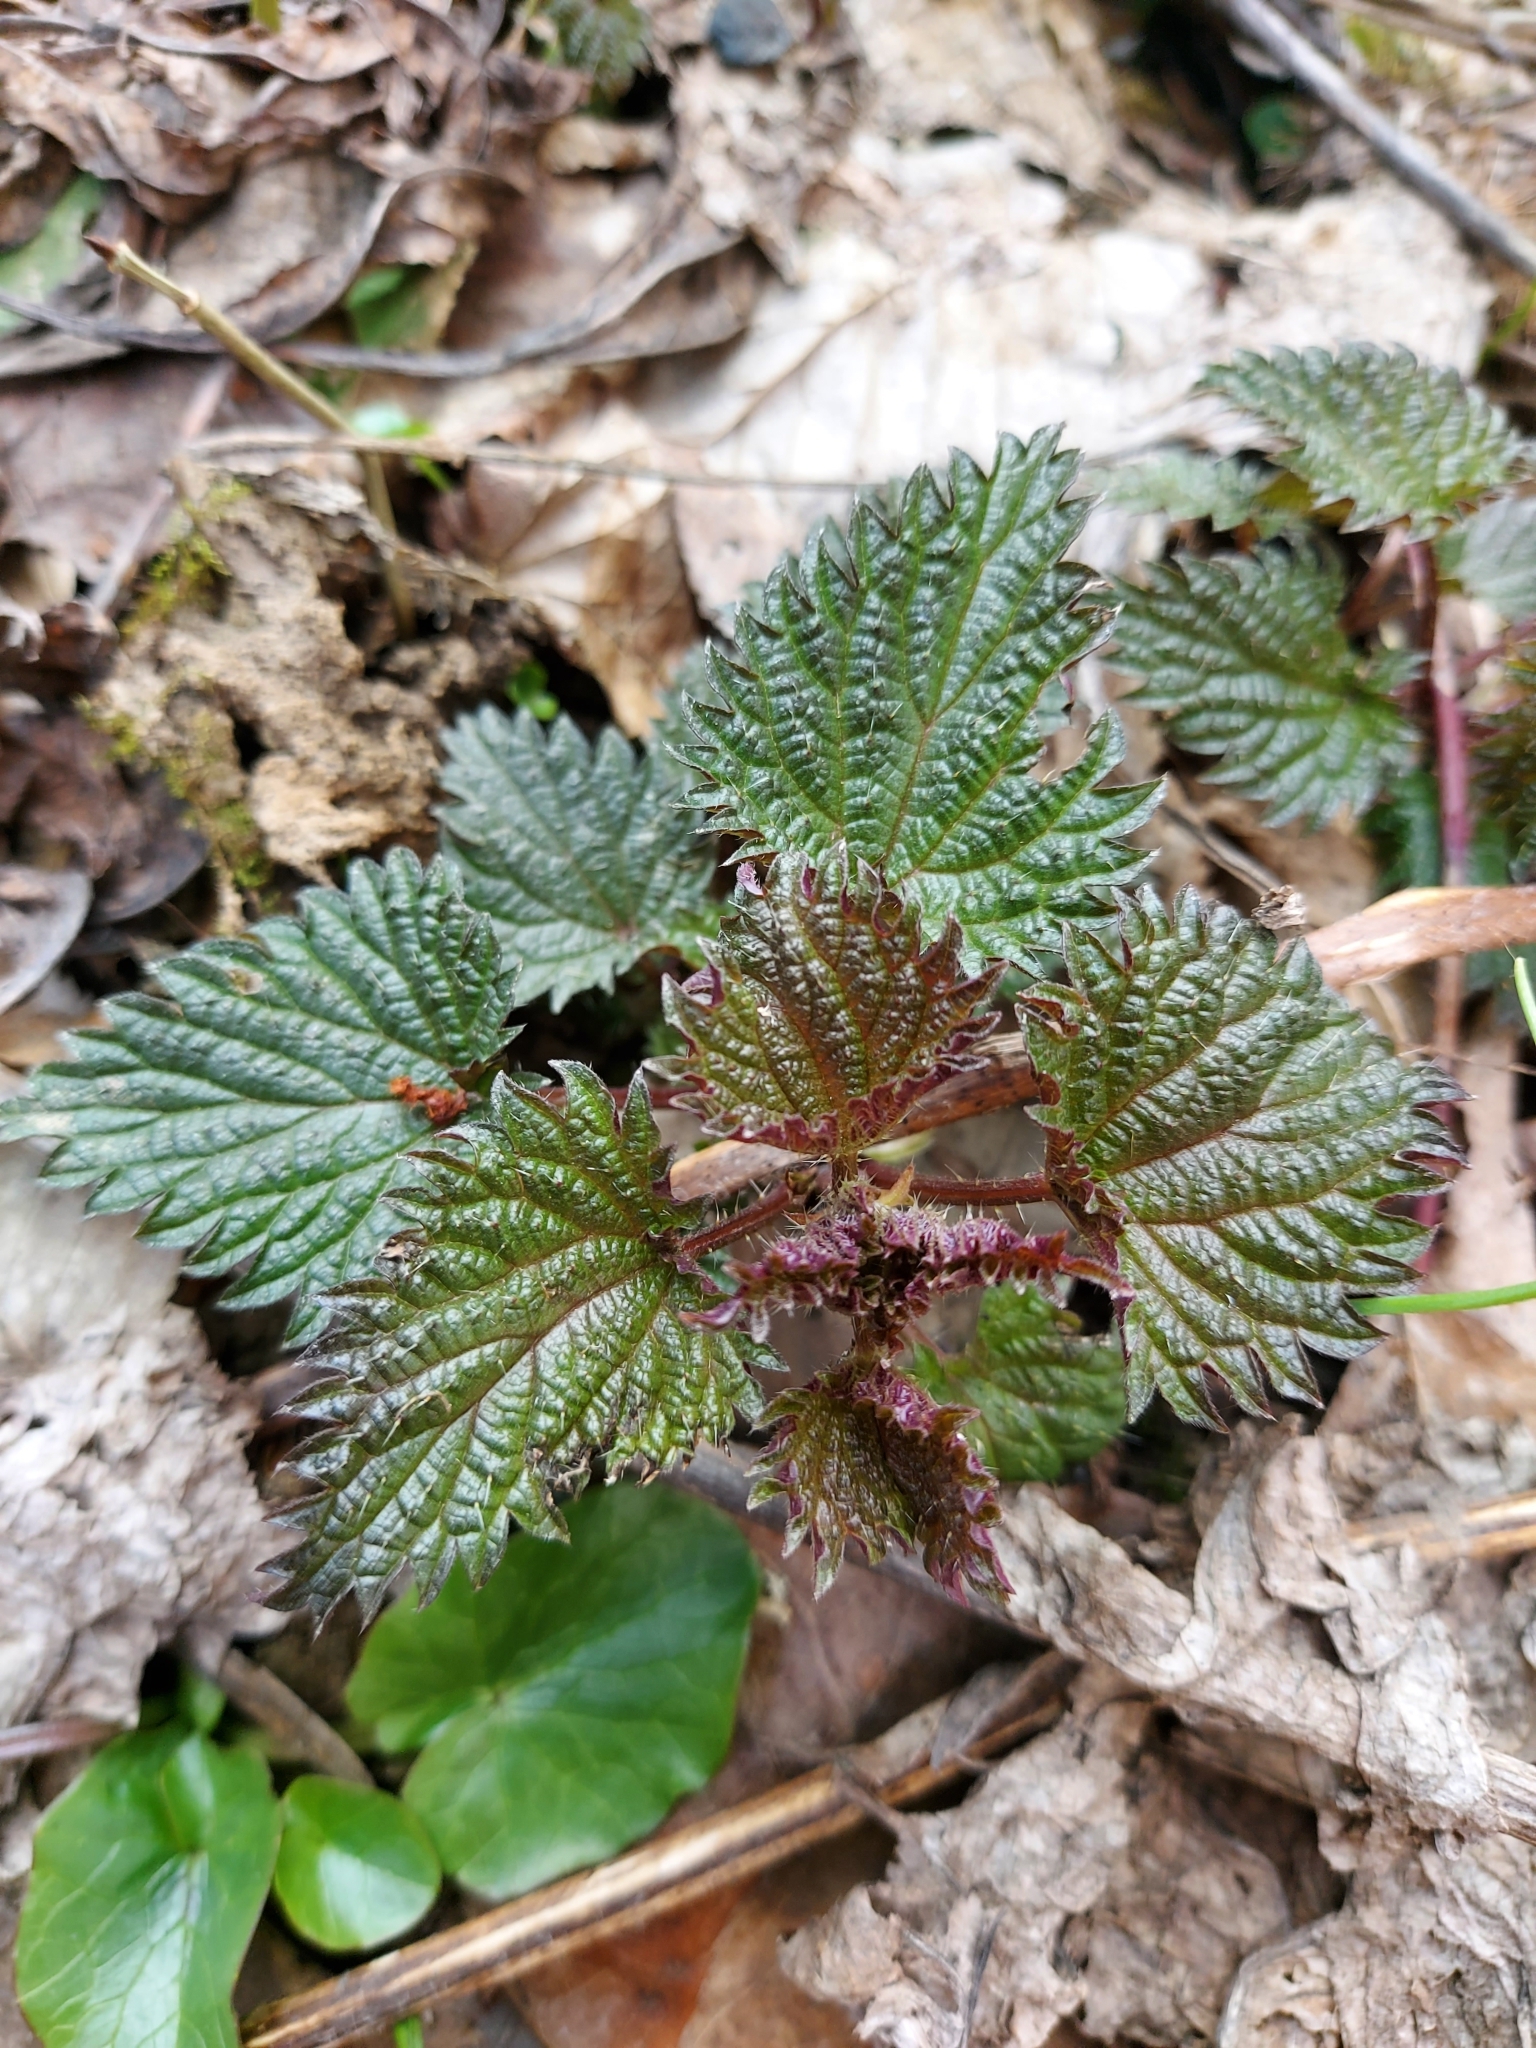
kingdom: Plantae
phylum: Tracheophyta
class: Magnoliopsida
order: Rosales
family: Urticaceae
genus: Urtica
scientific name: Urtica dioica
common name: Common nettle
